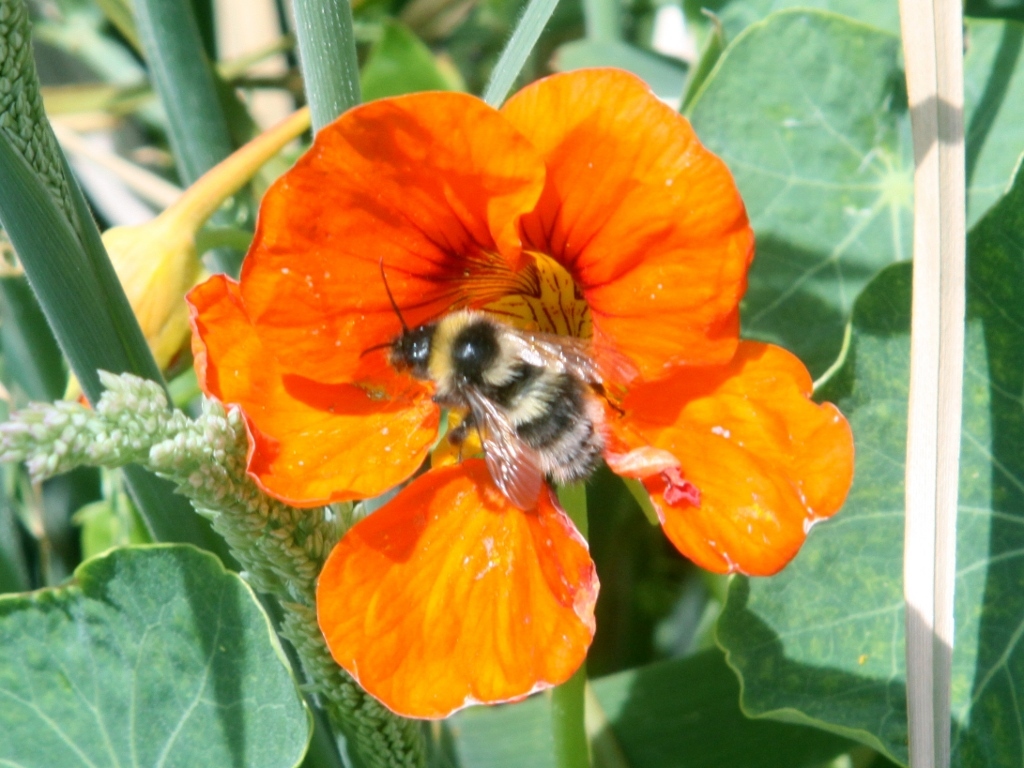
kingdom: Animalia
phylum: Arthropoda
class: Insecta
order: Hymenoptera
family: Apidae
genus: Bombus
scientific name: Bombus ruderatus
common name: Large garden bumblebee
